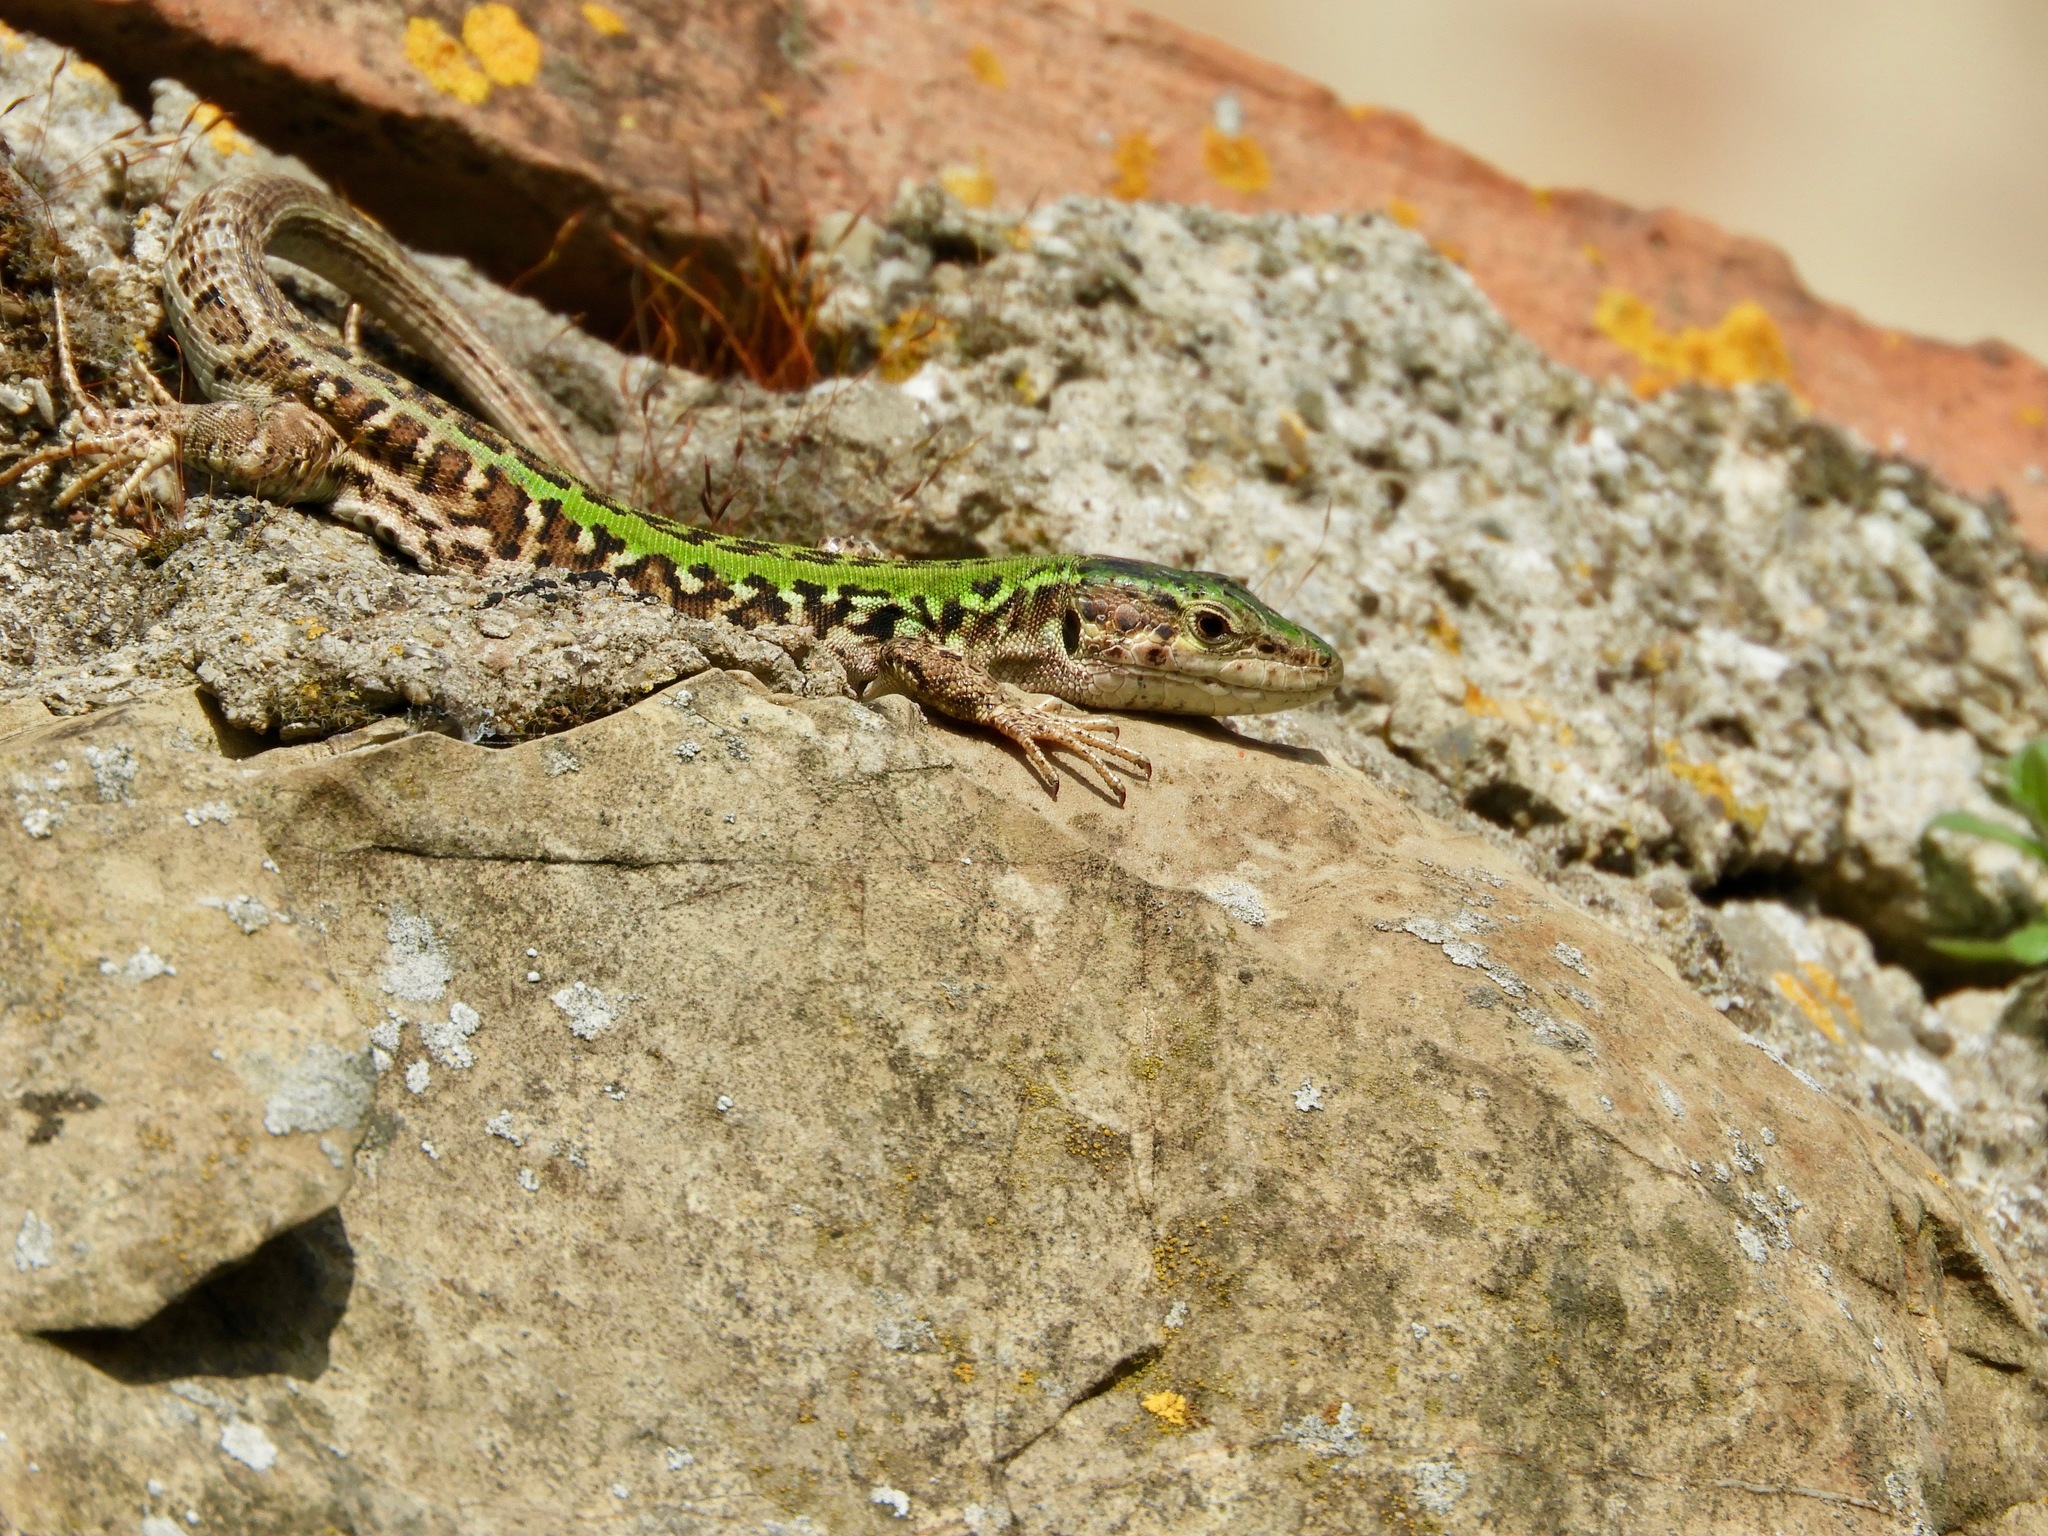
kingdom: Animalia
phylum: Chordata
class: Squamata
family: Lacertidae
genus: Podarcis
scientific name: Podarcis siculus
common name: Italian wall lizard
